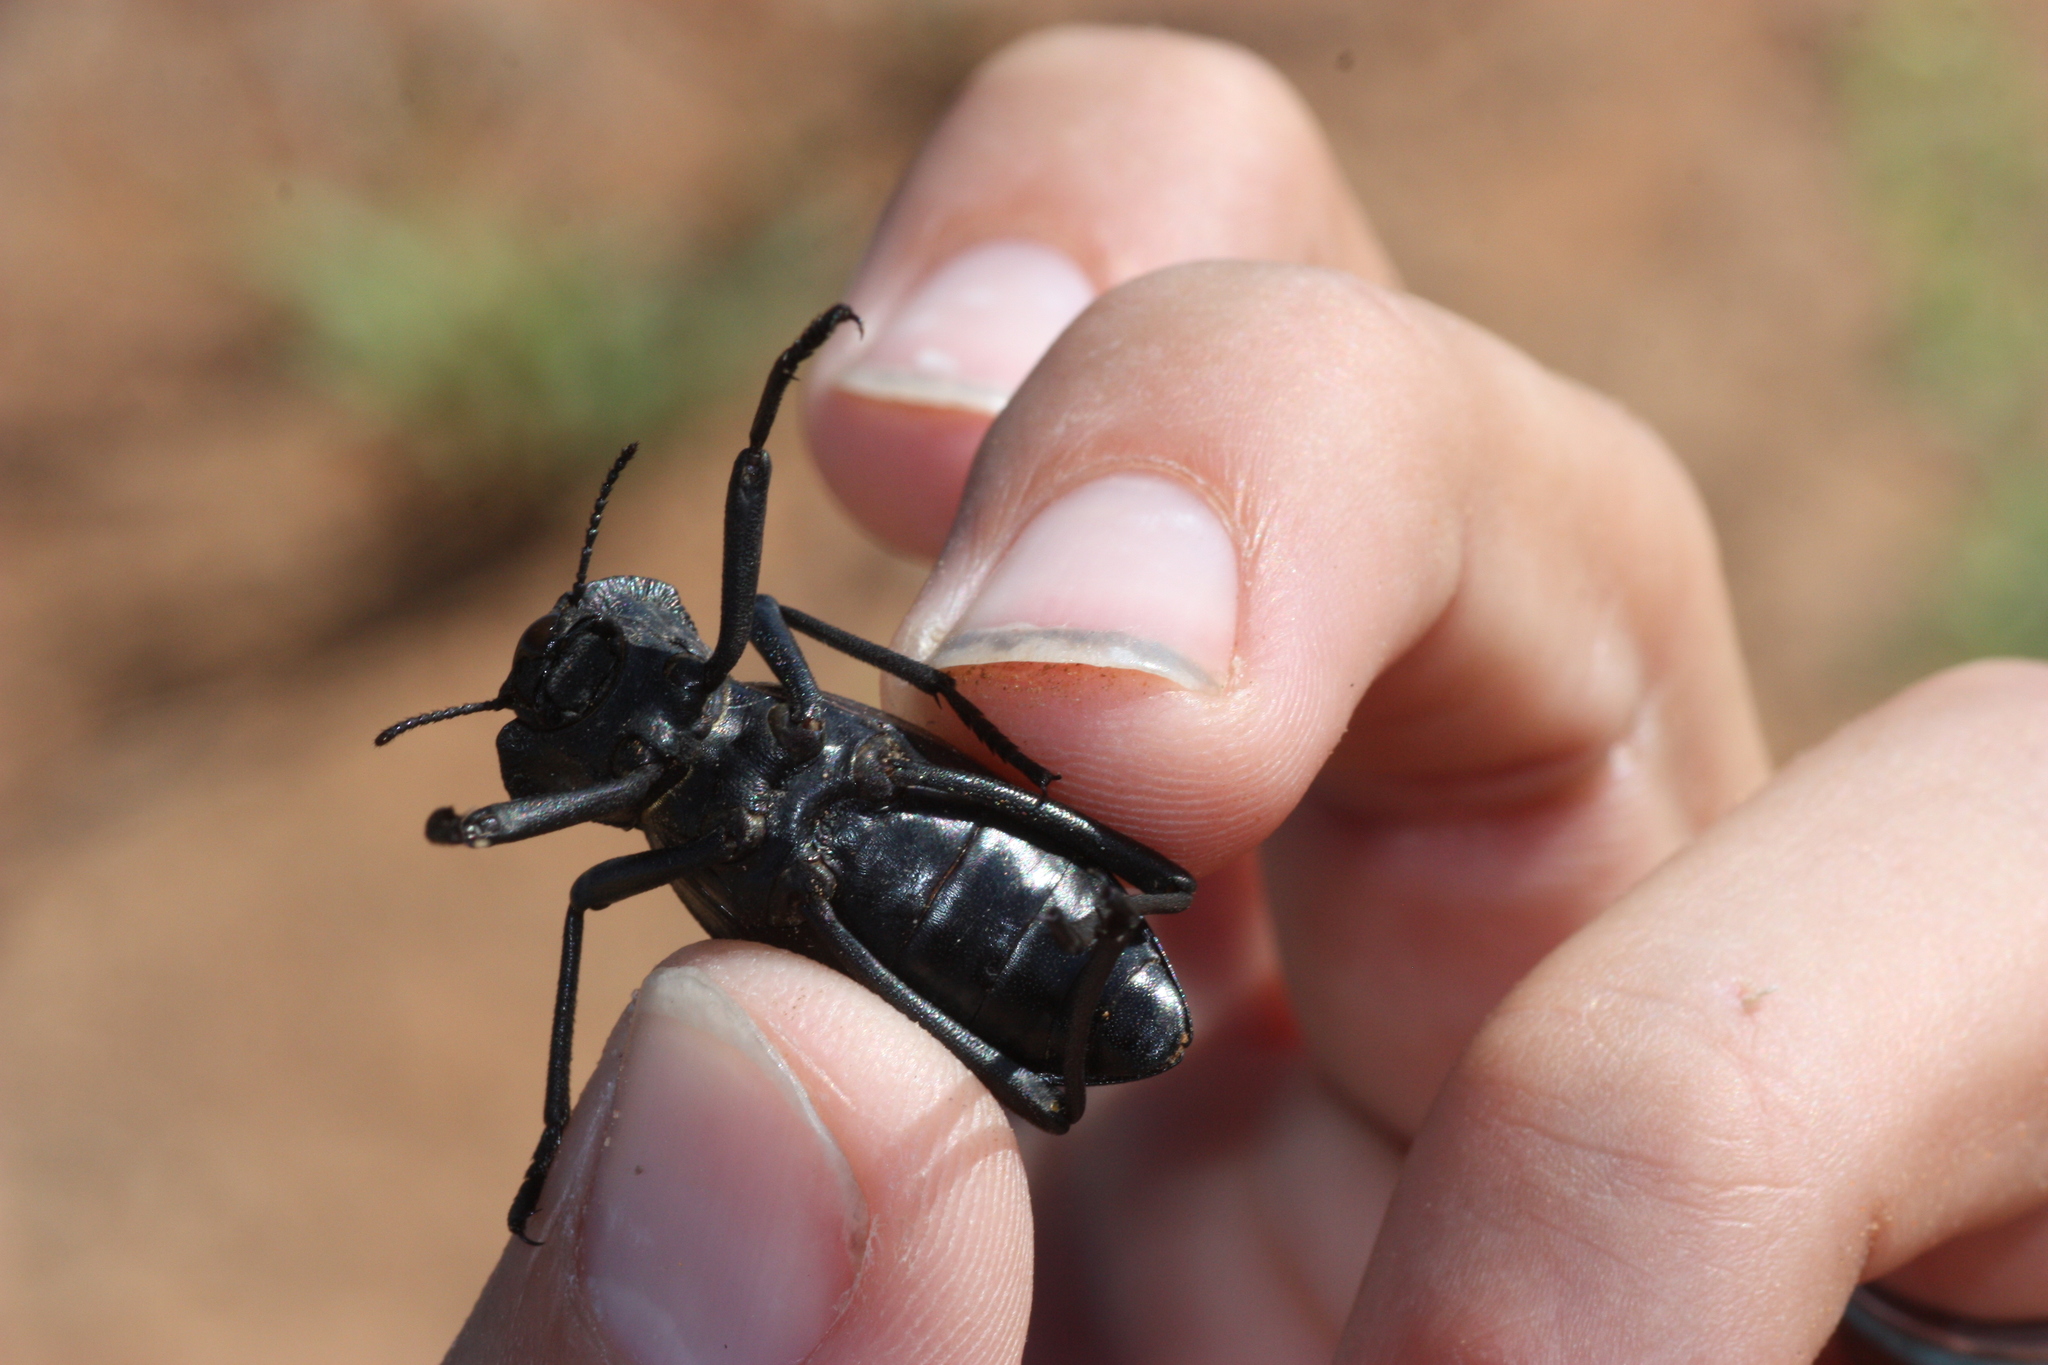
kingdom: Animalia
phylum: Arthropoda
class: Insecta
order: Coleoptera
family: Tenebrionidae
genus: Philolithus
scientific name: Philolithus elatus
